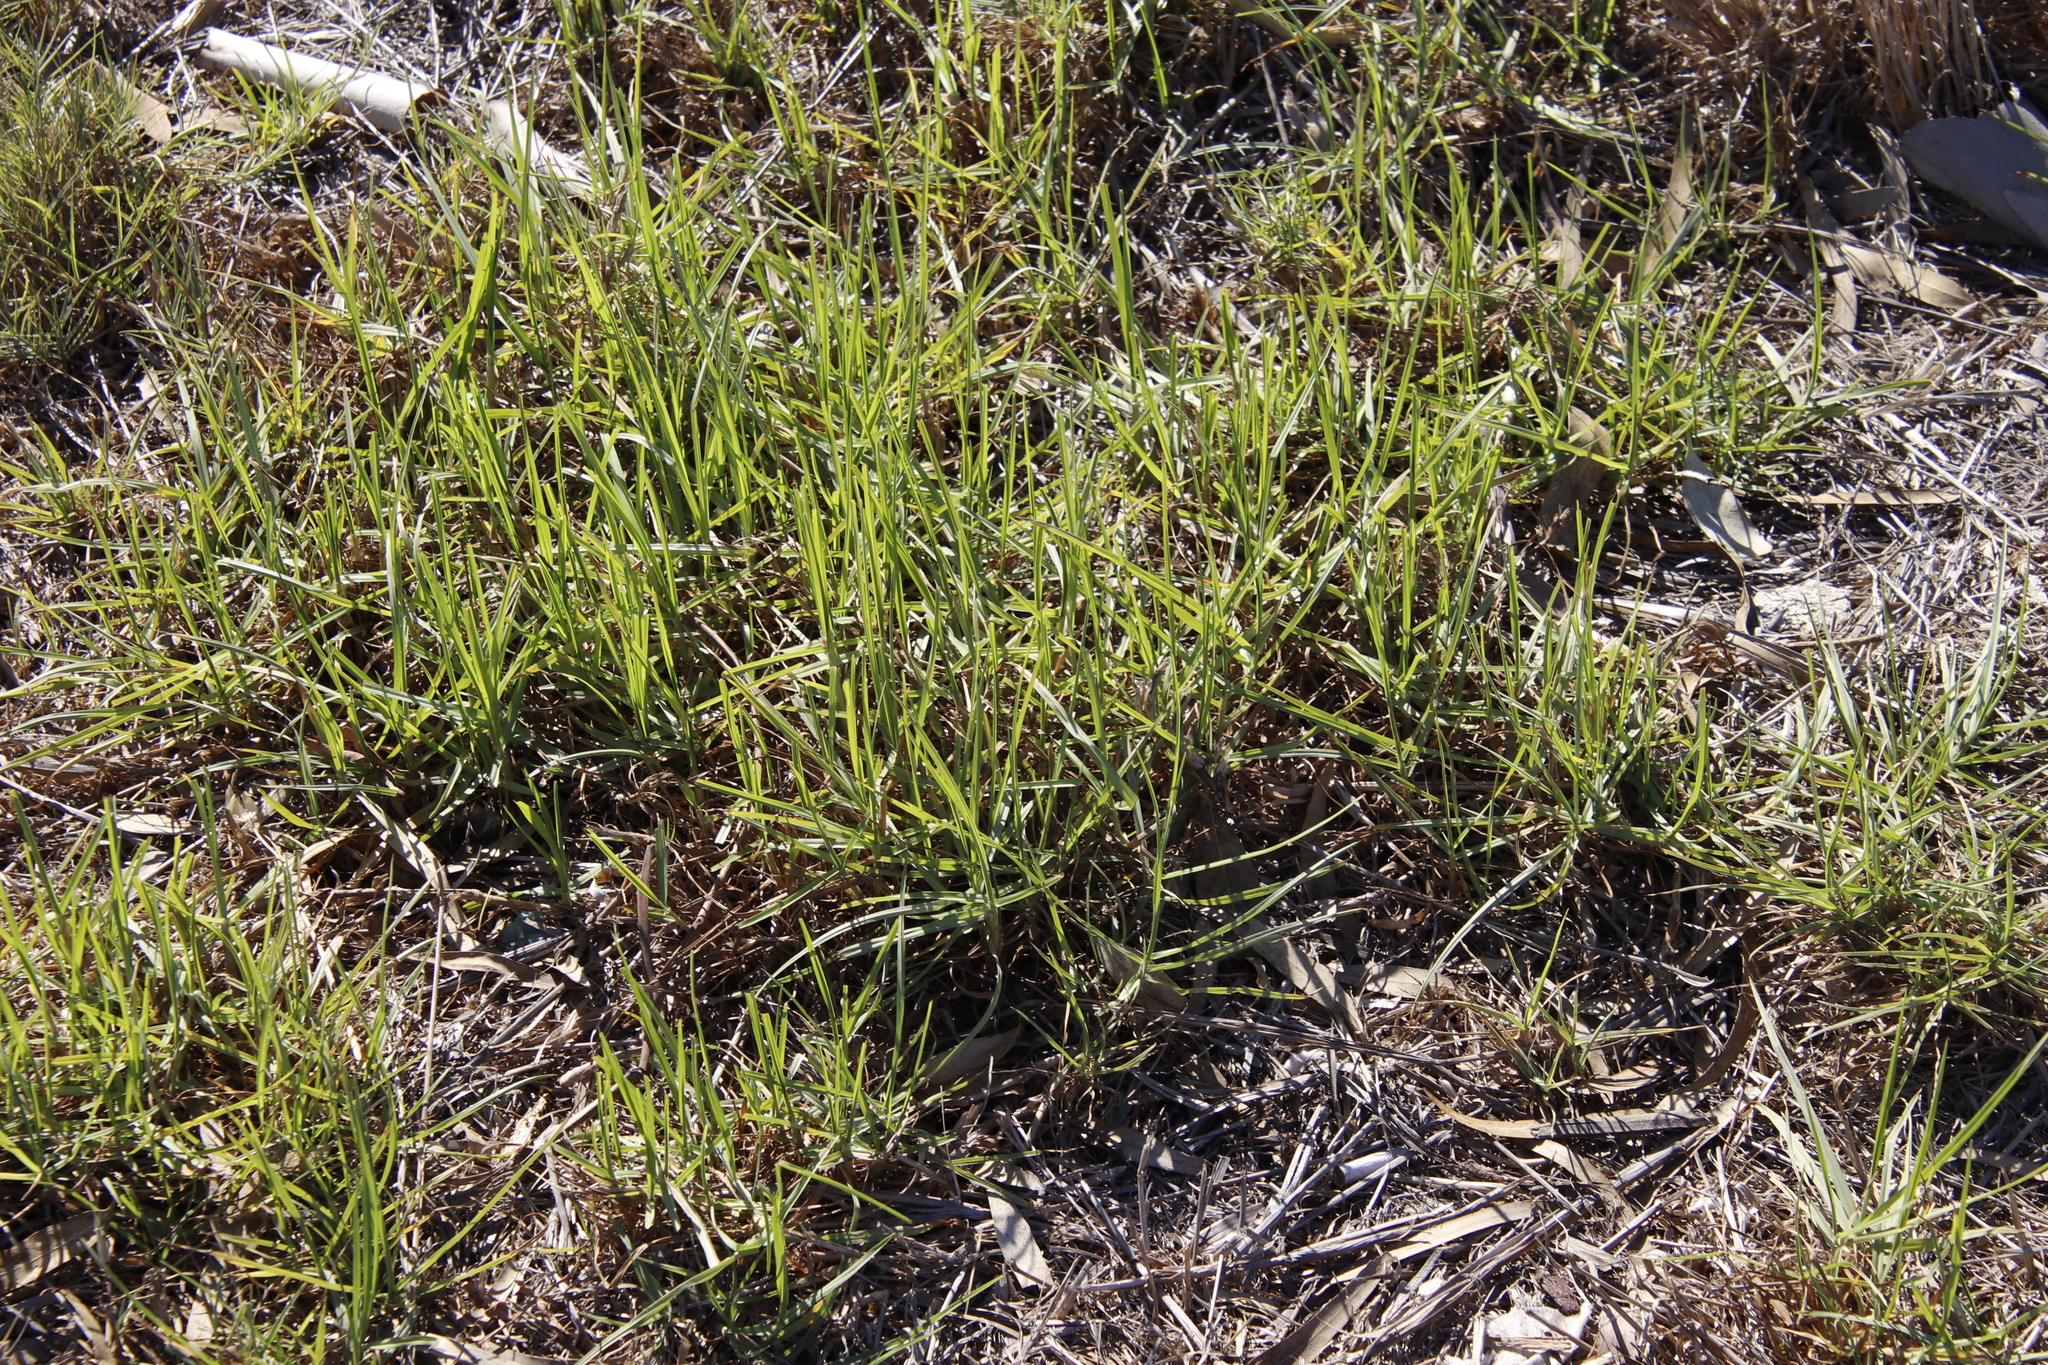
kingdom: Plantae
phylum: Tracheophyta
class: Liliopsida
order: Poales
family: Poaceae
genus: Cenchrus
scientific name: Cenchrus clandestinus
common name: Kikuyugrass
